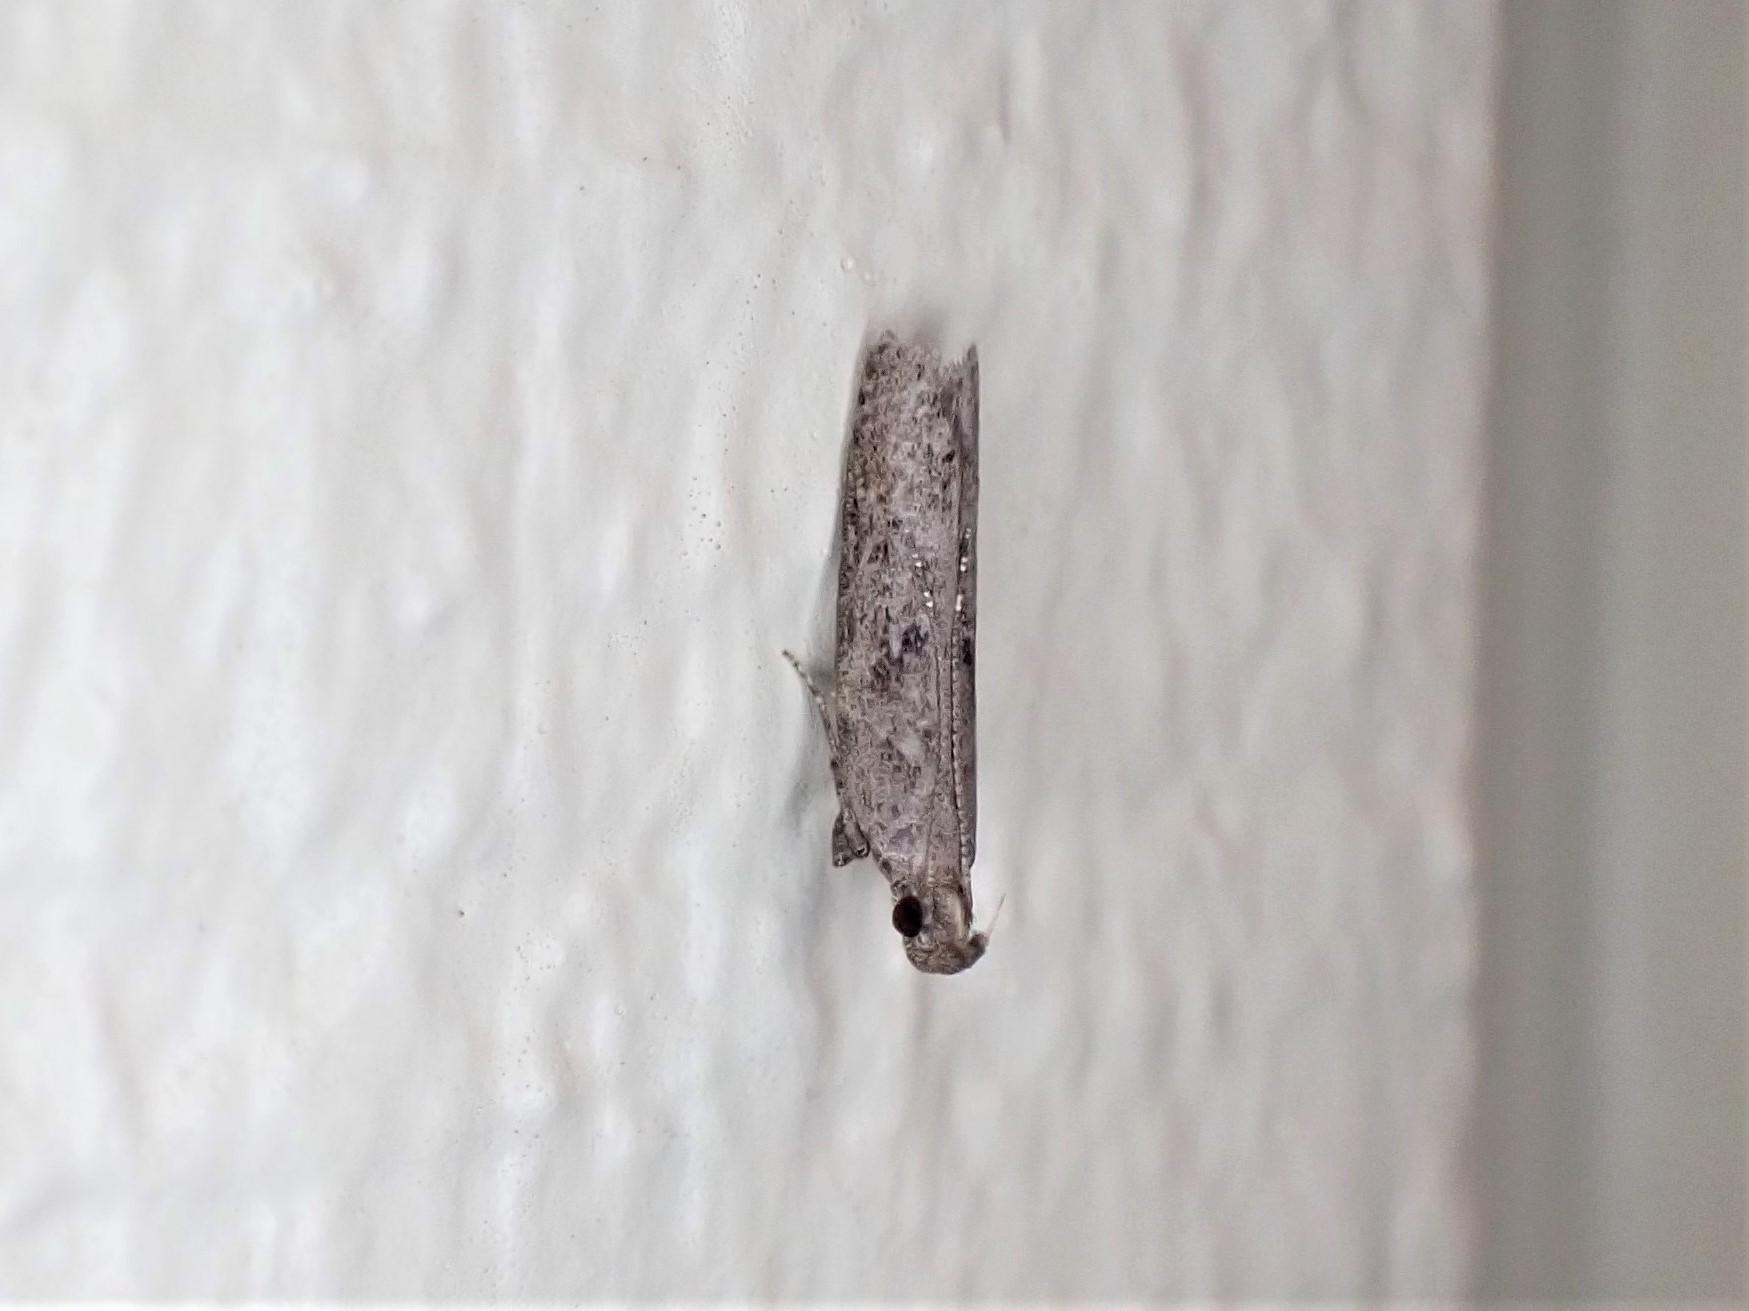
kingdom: Animalia
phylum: Arthropoda
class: Insecta
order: Lepidoptera
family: Depressariidae
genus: Eutorna
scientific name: Eutorna phaulocosma
